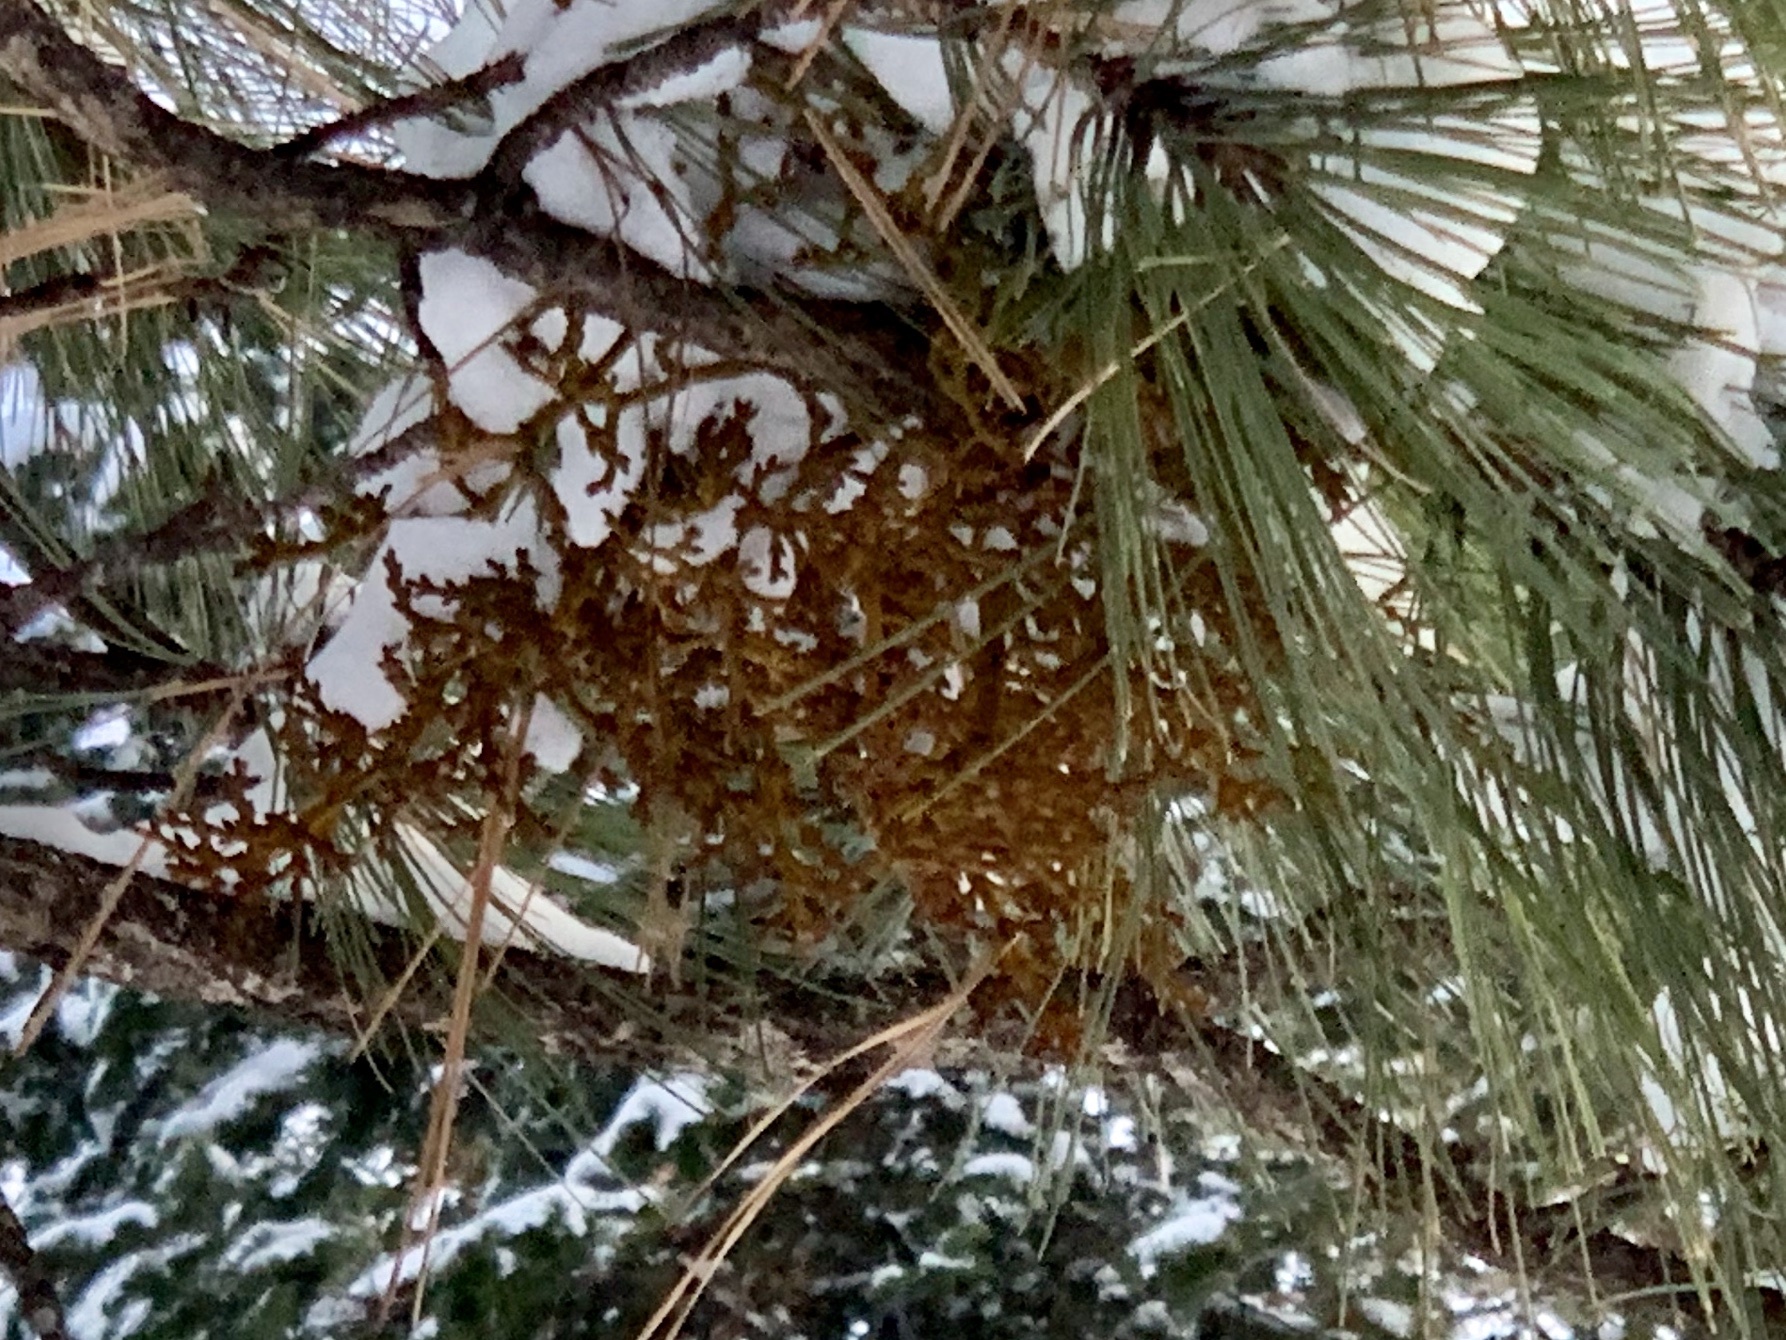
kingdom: Plantae
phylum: Tracheophyta
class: Magnoliopsida
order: Santalales
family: Viscaceae
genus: Arceuthobium
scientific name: Arceuthobium vaginatum
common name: Southwestern dwarf-mistletoe
